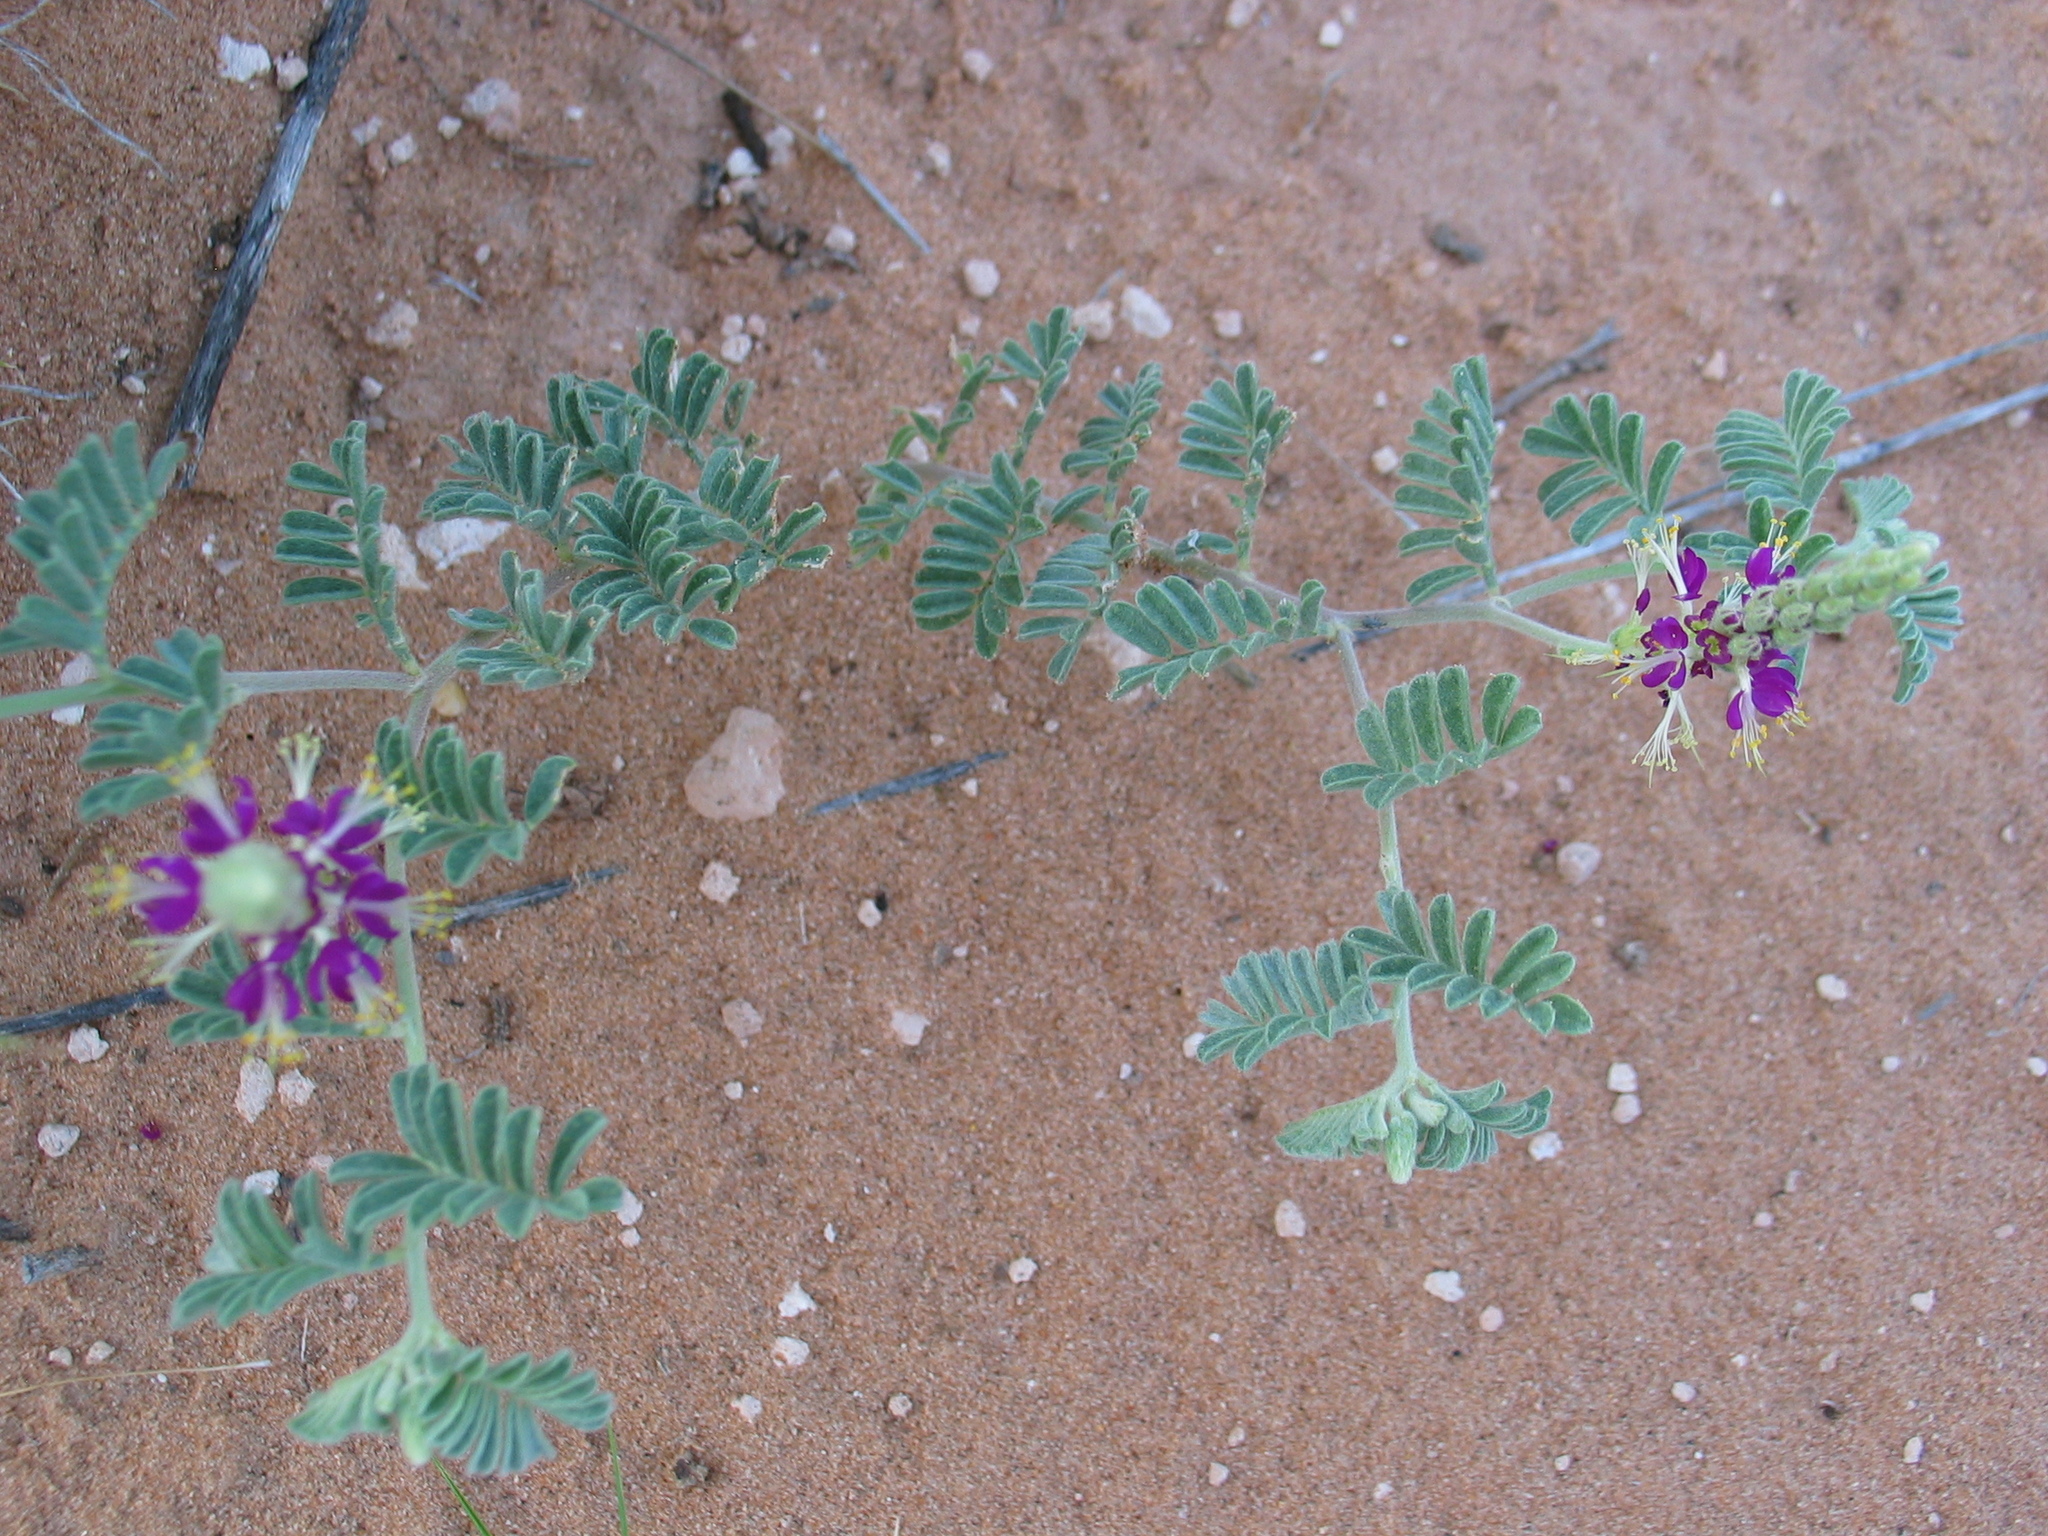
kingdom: Plantae
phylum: Tracheophyta
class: Magnoliopsida
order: Fabales
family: Fabaceae
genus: Dalea
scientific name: Dalea lanata
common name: Woolly dalea
